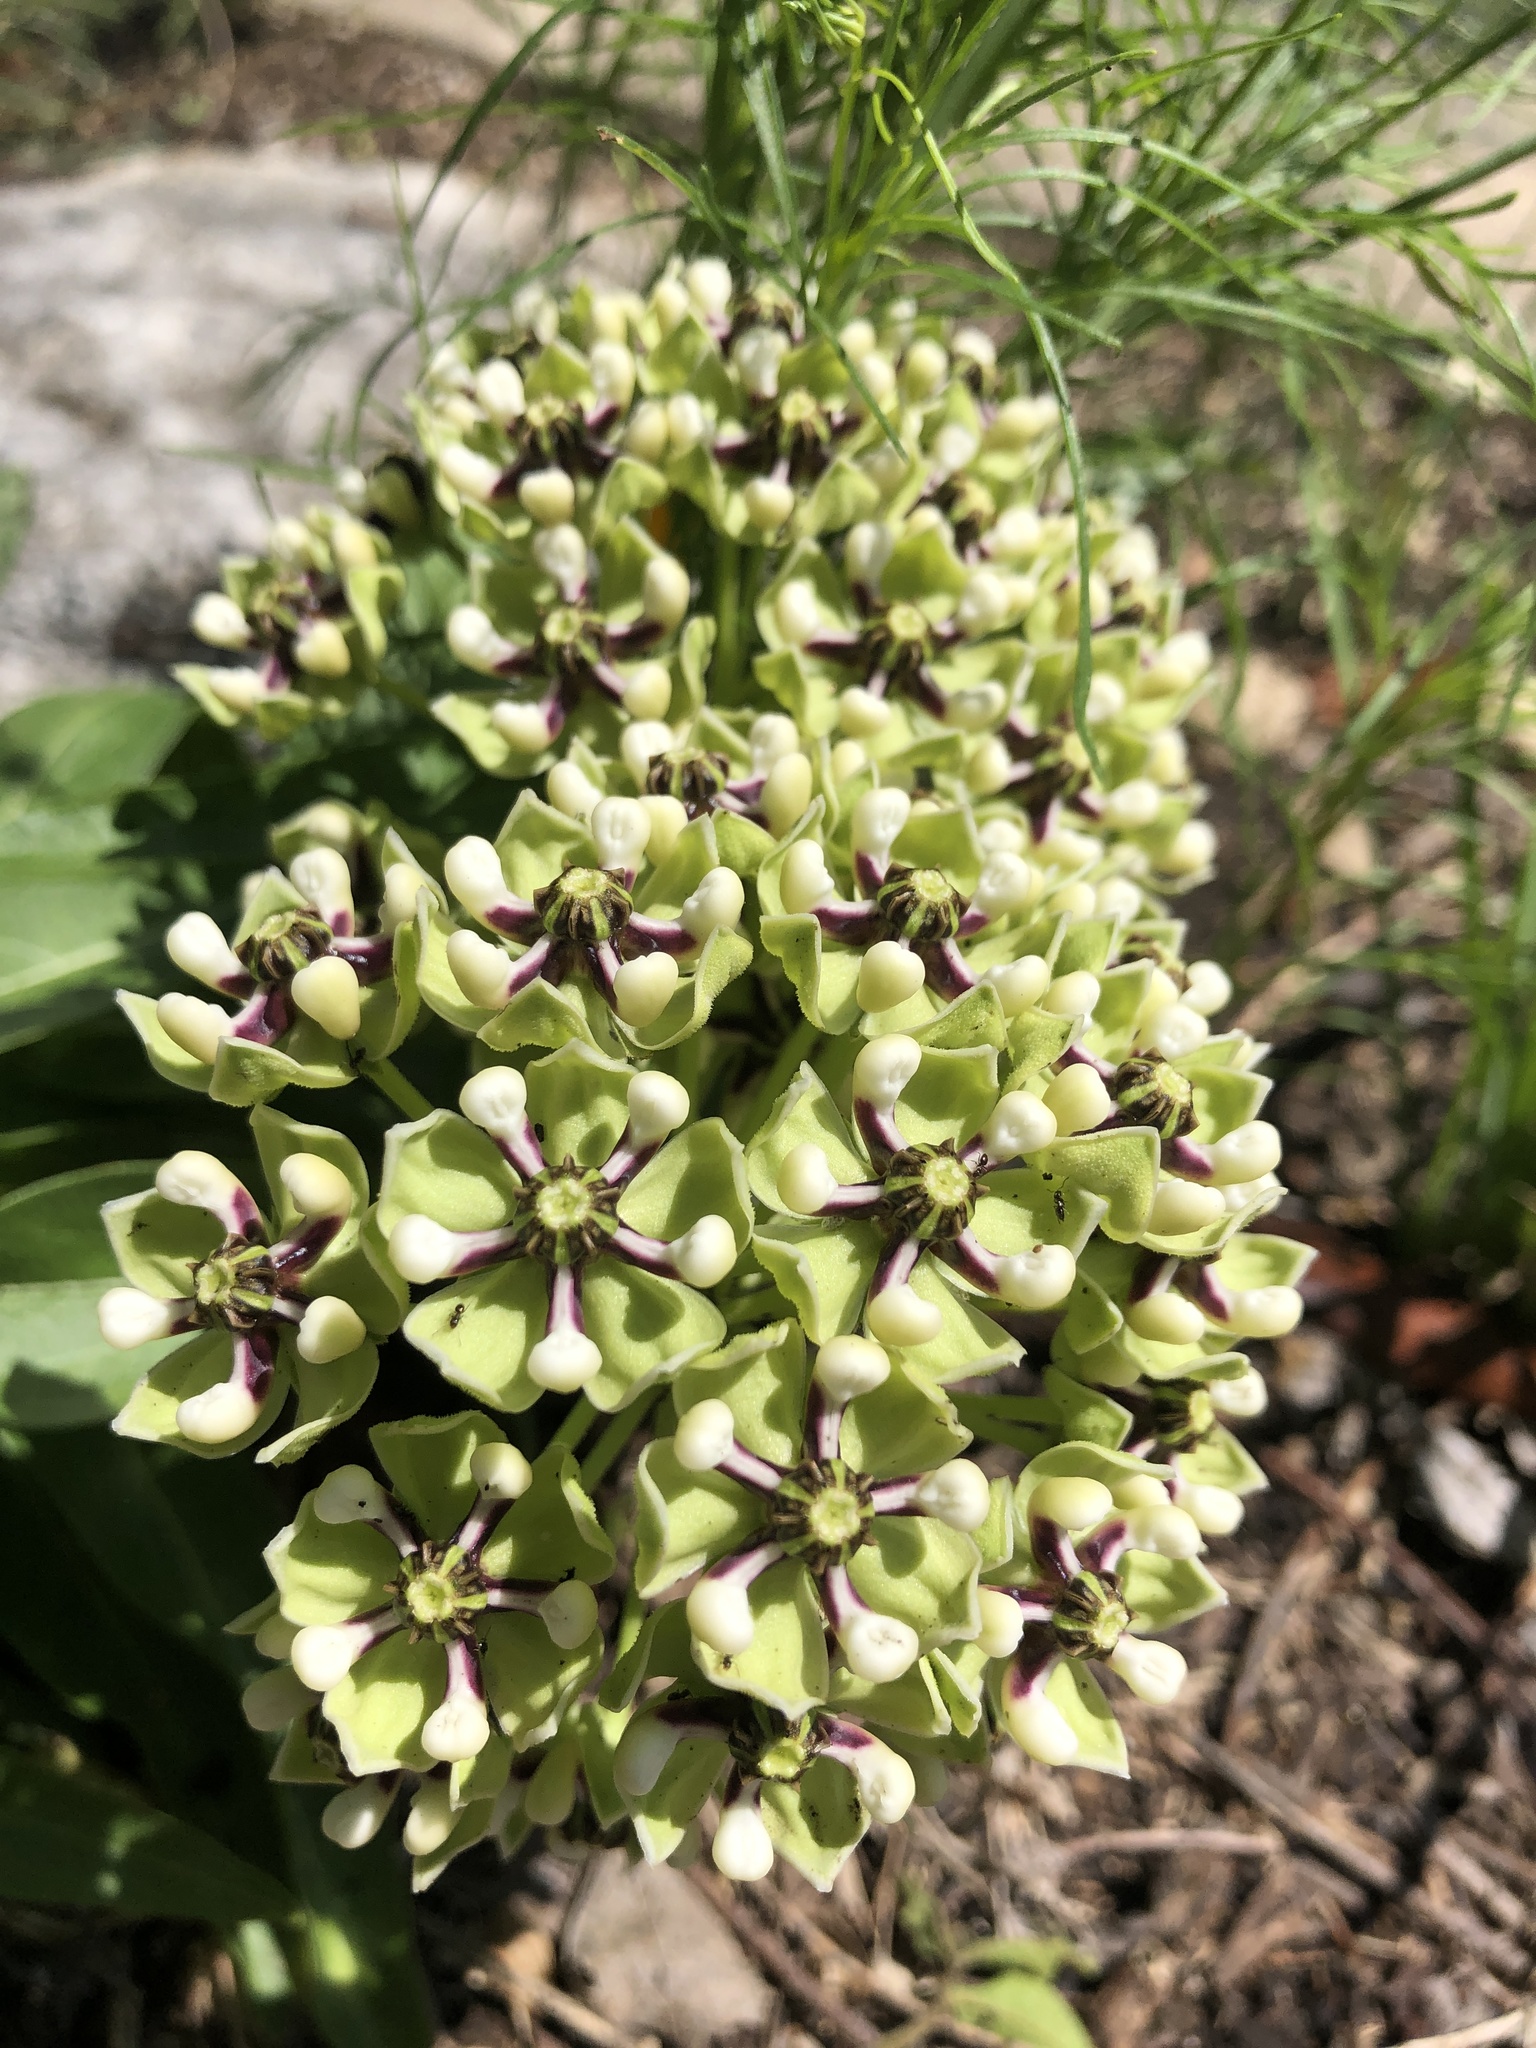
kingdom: Plantae
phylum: Tracheophyta
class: Magnoliopsida
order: Gentianales
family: Apocynaceae
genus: Asclepias
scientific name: Asclepias asperula
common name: Antelope horns
